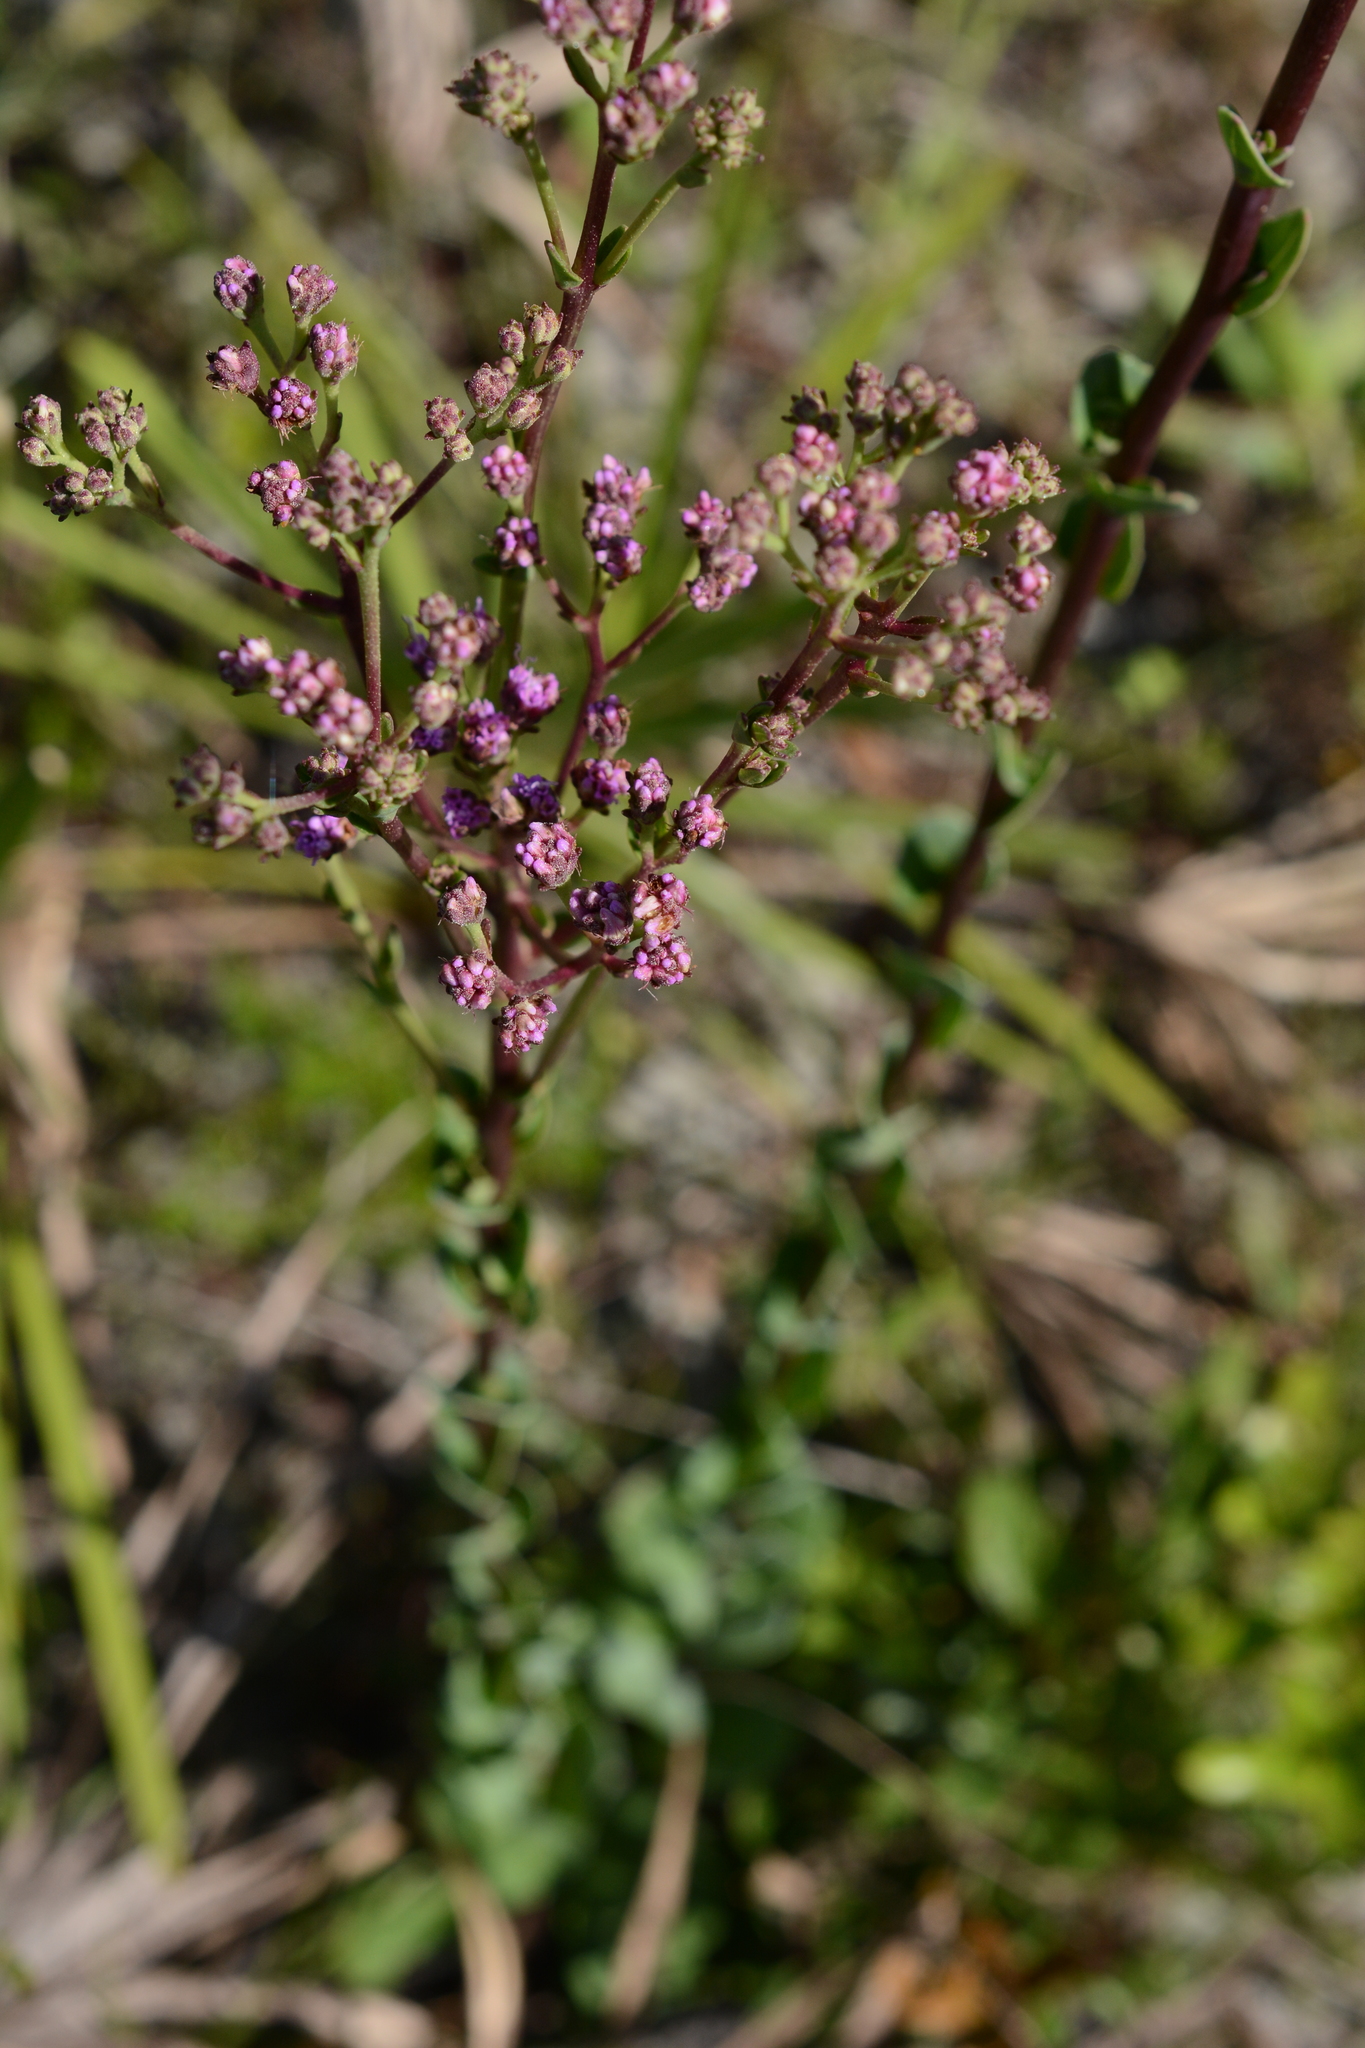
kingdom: Plantae
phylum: Tracheophyta
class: Magnoliopsida
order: Asterales
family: Asteraceae
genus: Carphephorus
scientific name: Carphephorus odoratissimus
